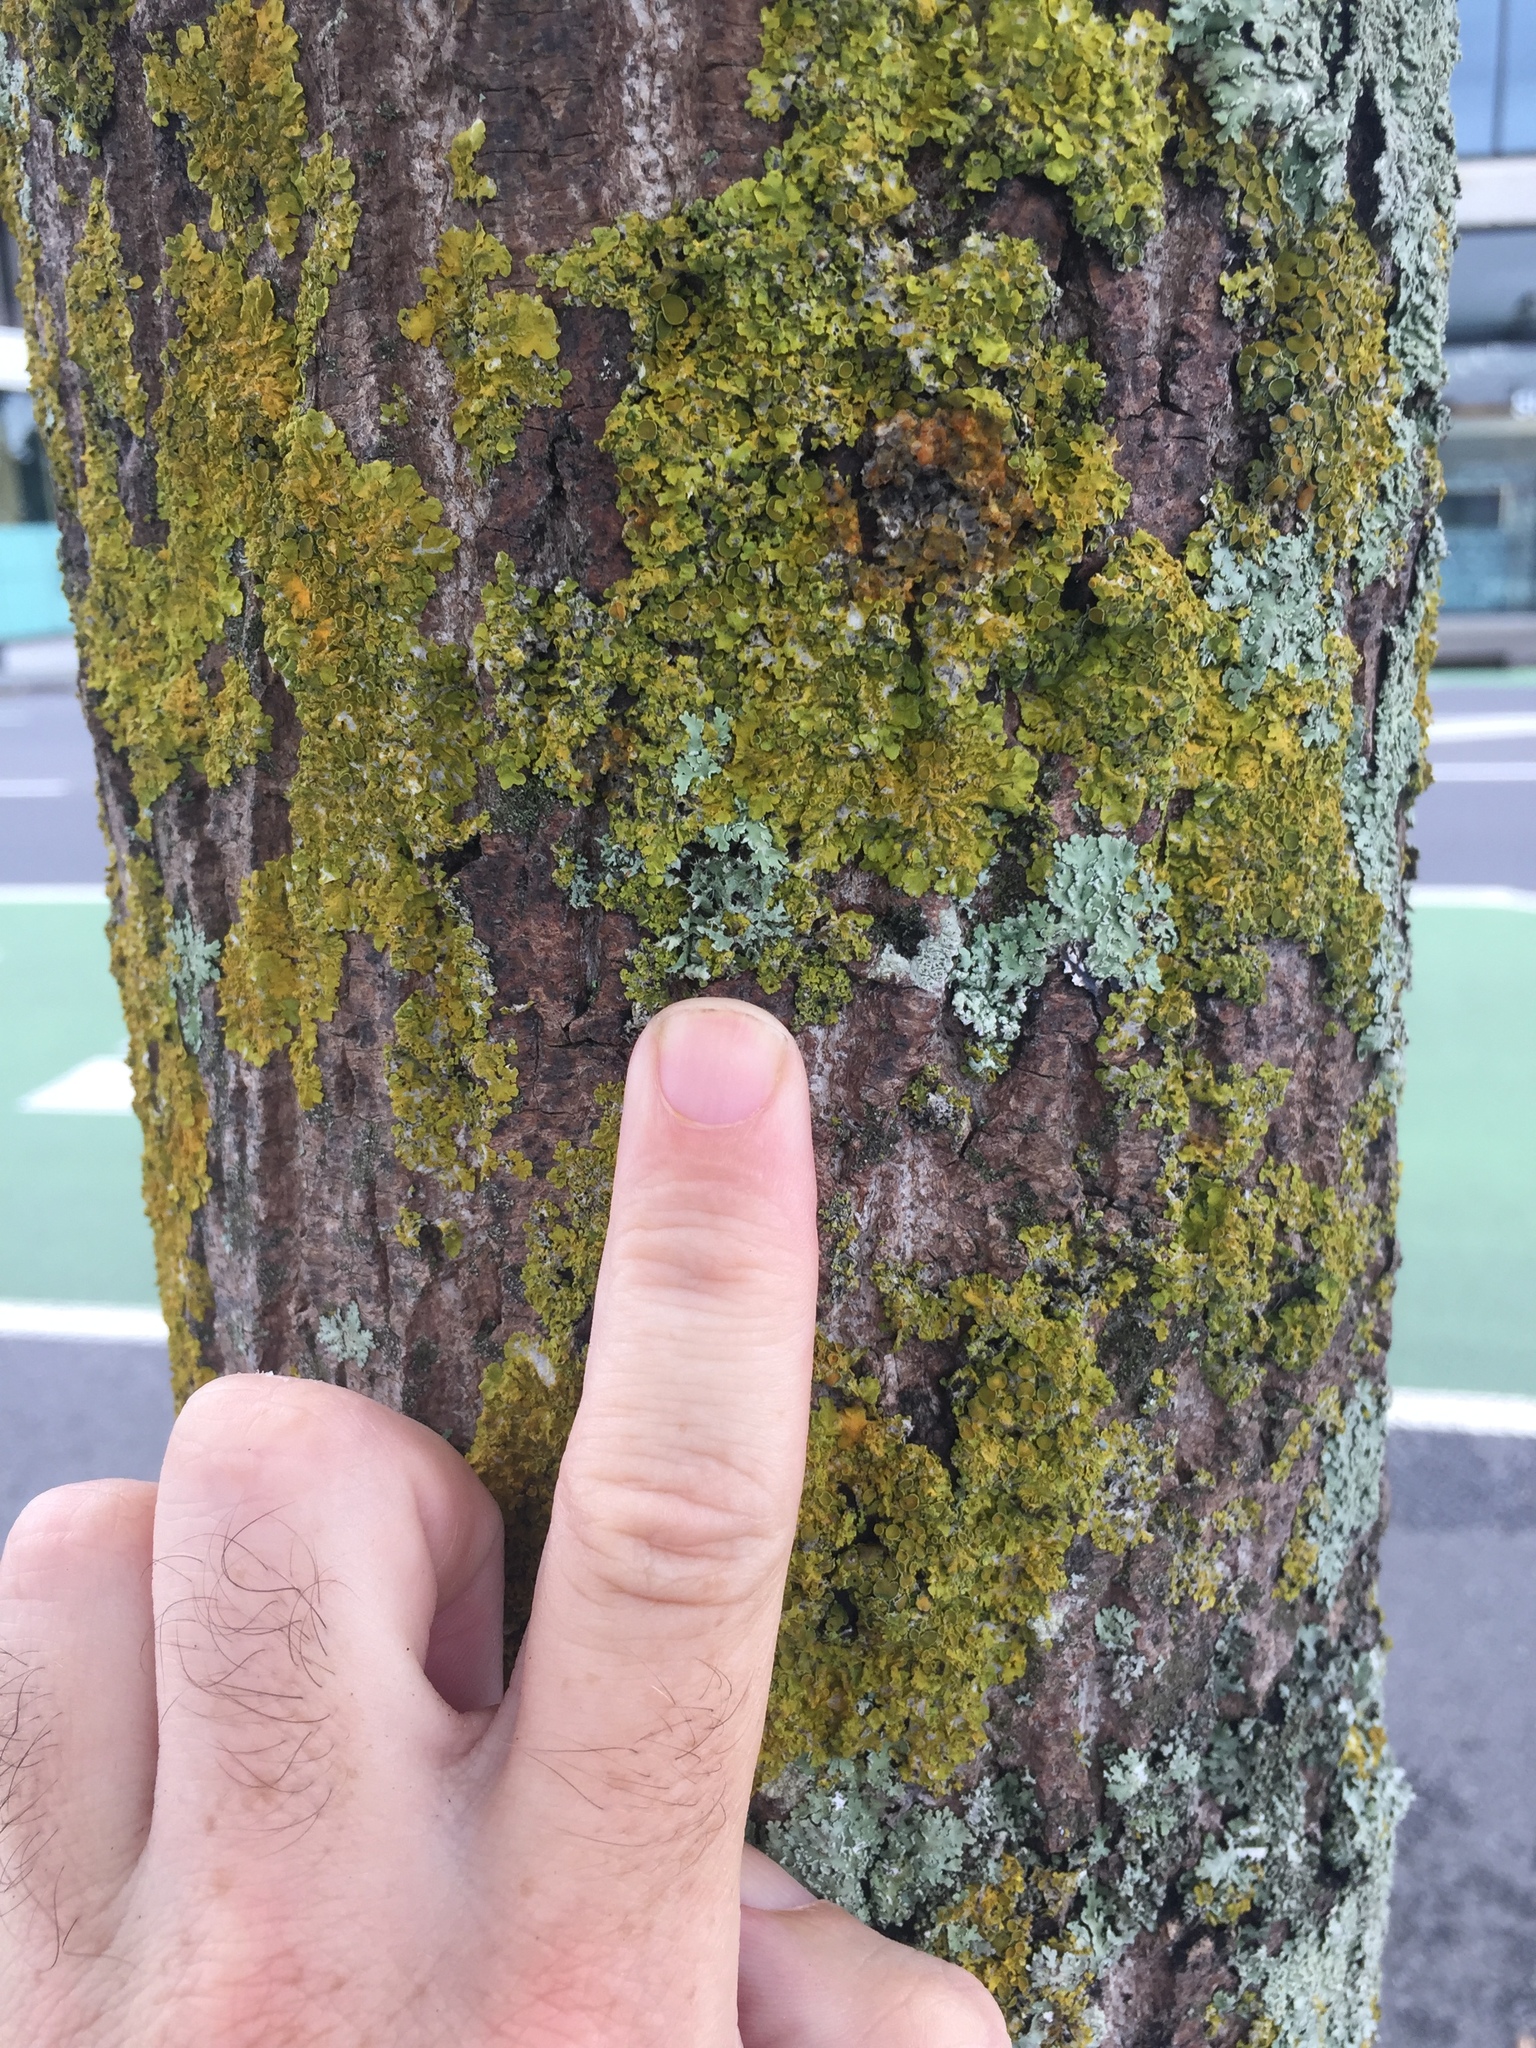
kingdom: Fungi
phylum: Ascomycota
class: Lecanoromycetes
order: Caliciales
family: Physciaceae
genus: Physcia
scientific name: Physcia adscendens
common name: Hooded rosette lichen
